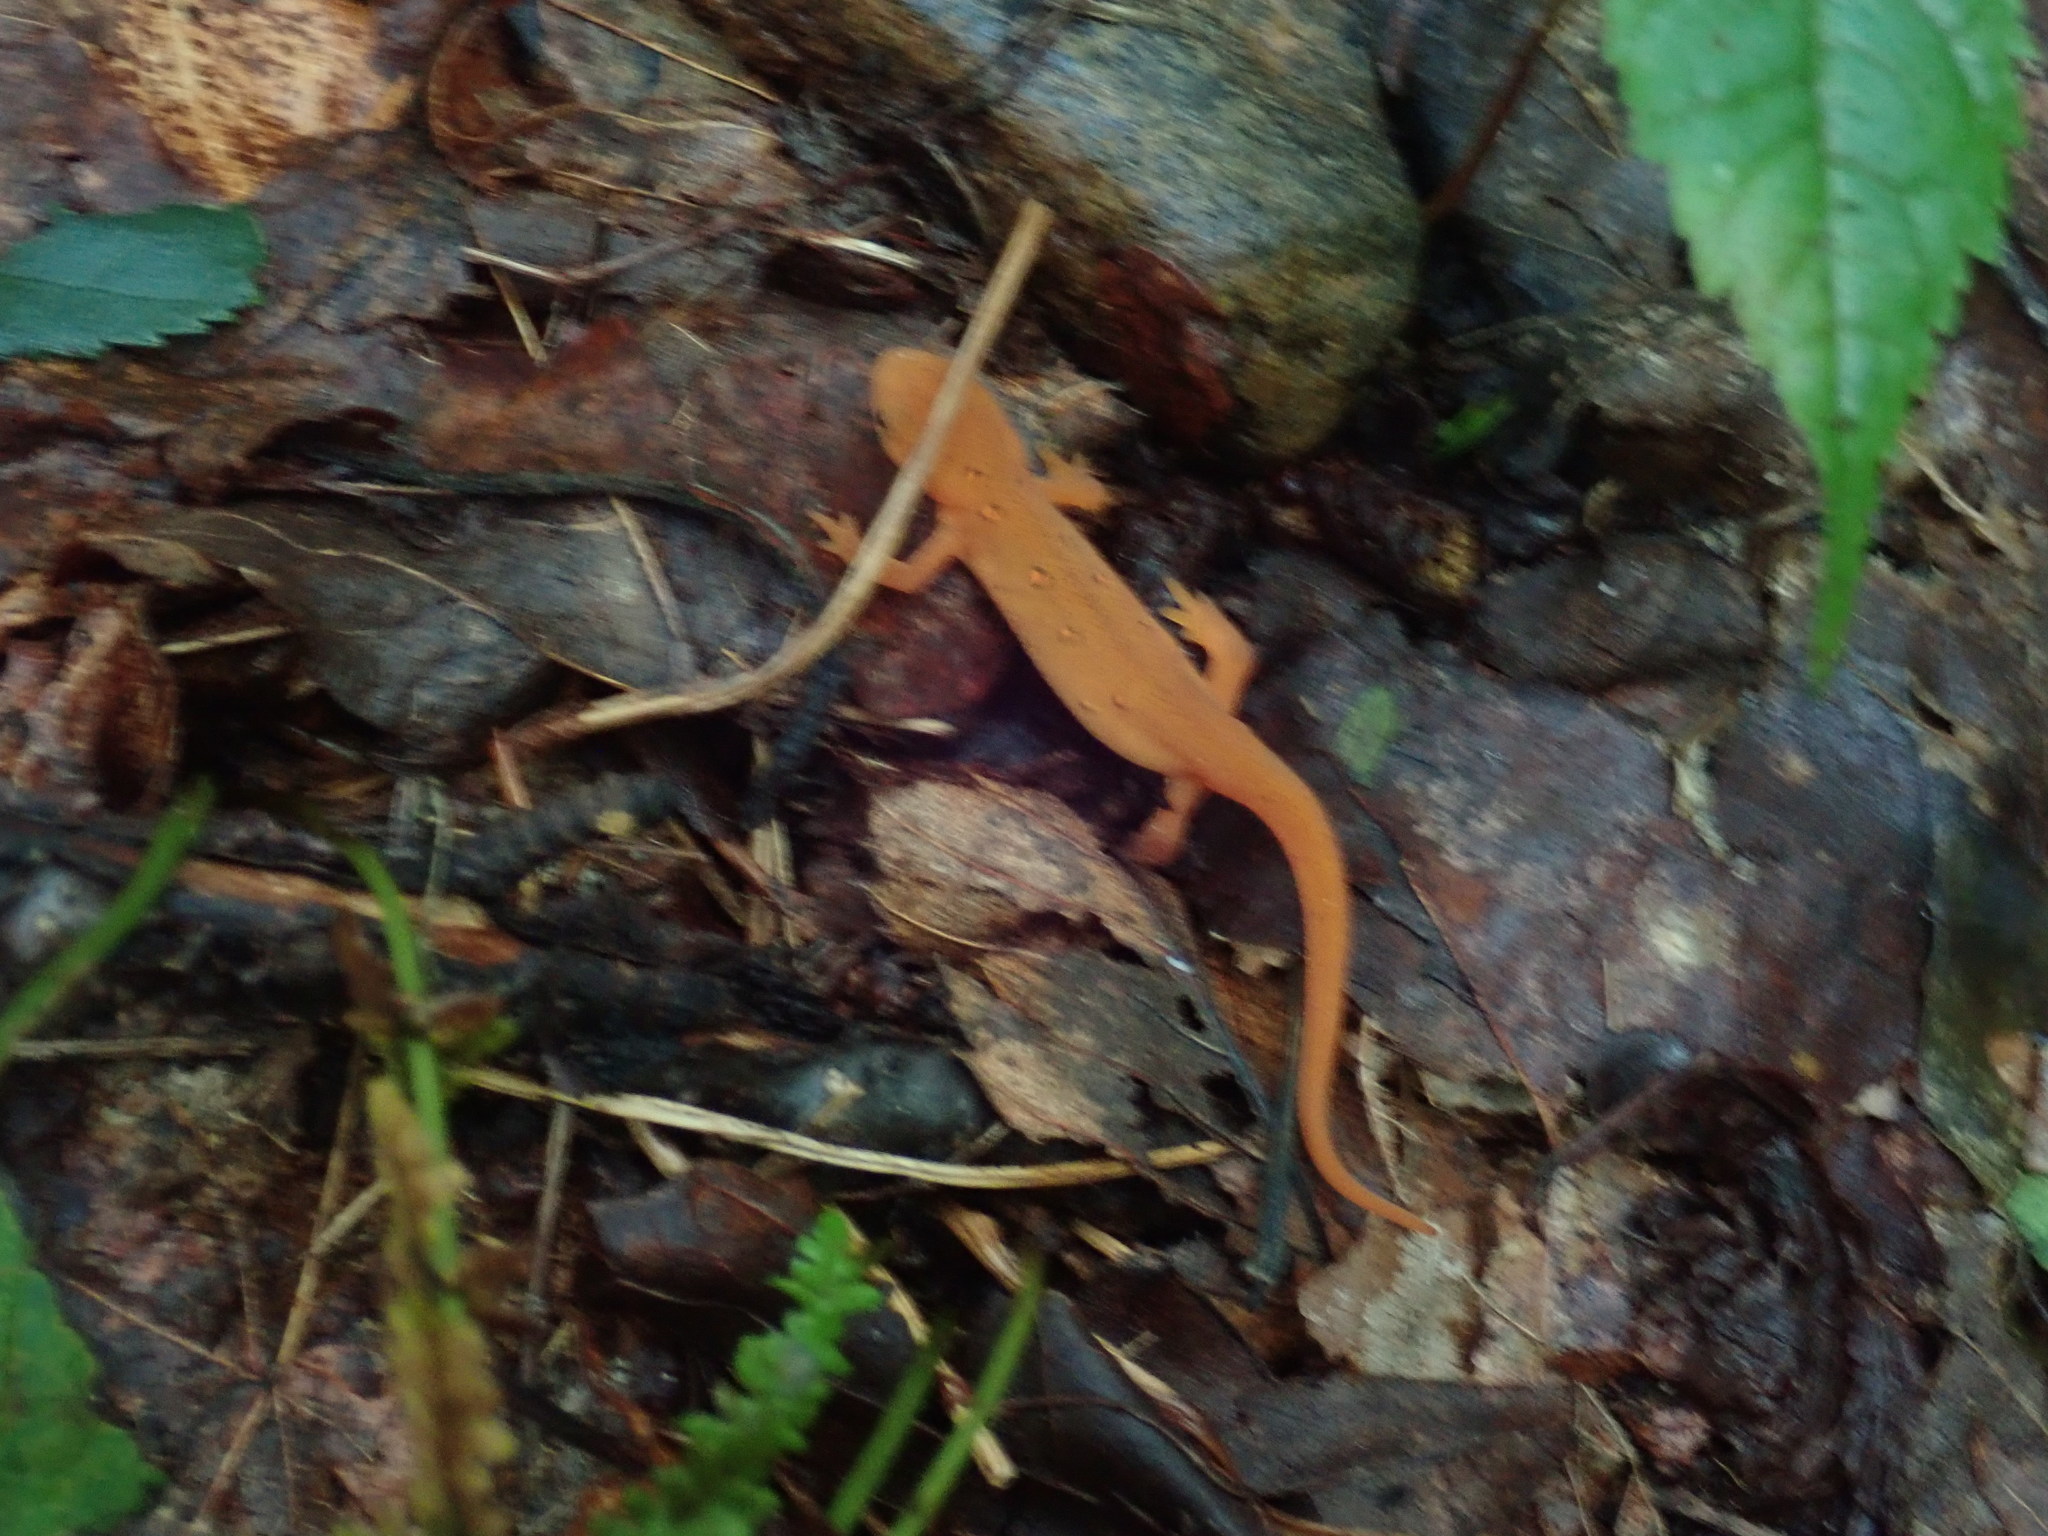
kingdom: Animalia
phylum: Chordata
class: Amphibia
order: Caudata
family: Salamandridae
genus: Notophthalmus
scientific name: Notophthalmus viridescens
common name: Eastern newt
